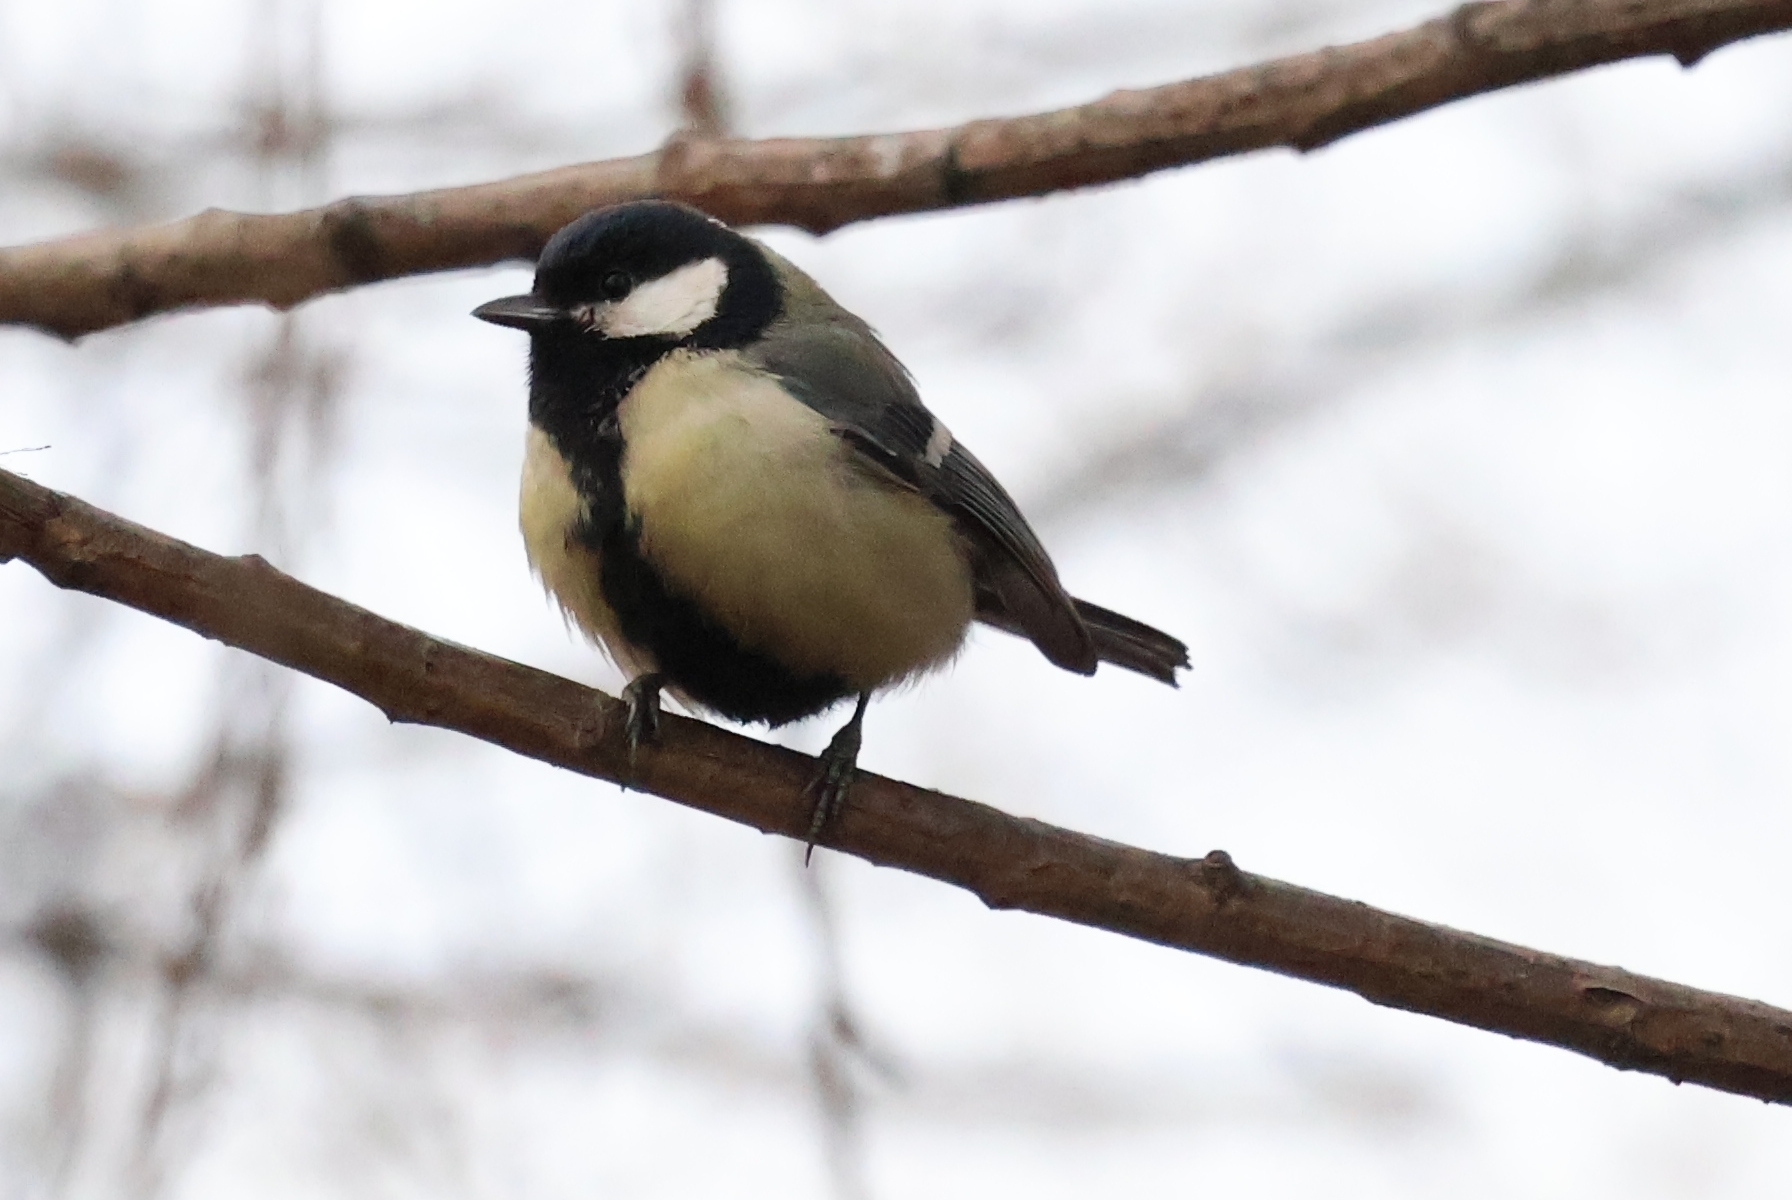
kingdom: Animalia
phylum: Chordata
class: Aves
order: Passeriformes
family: Paridae
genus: Parus
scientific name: Parus major
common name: Great tit
